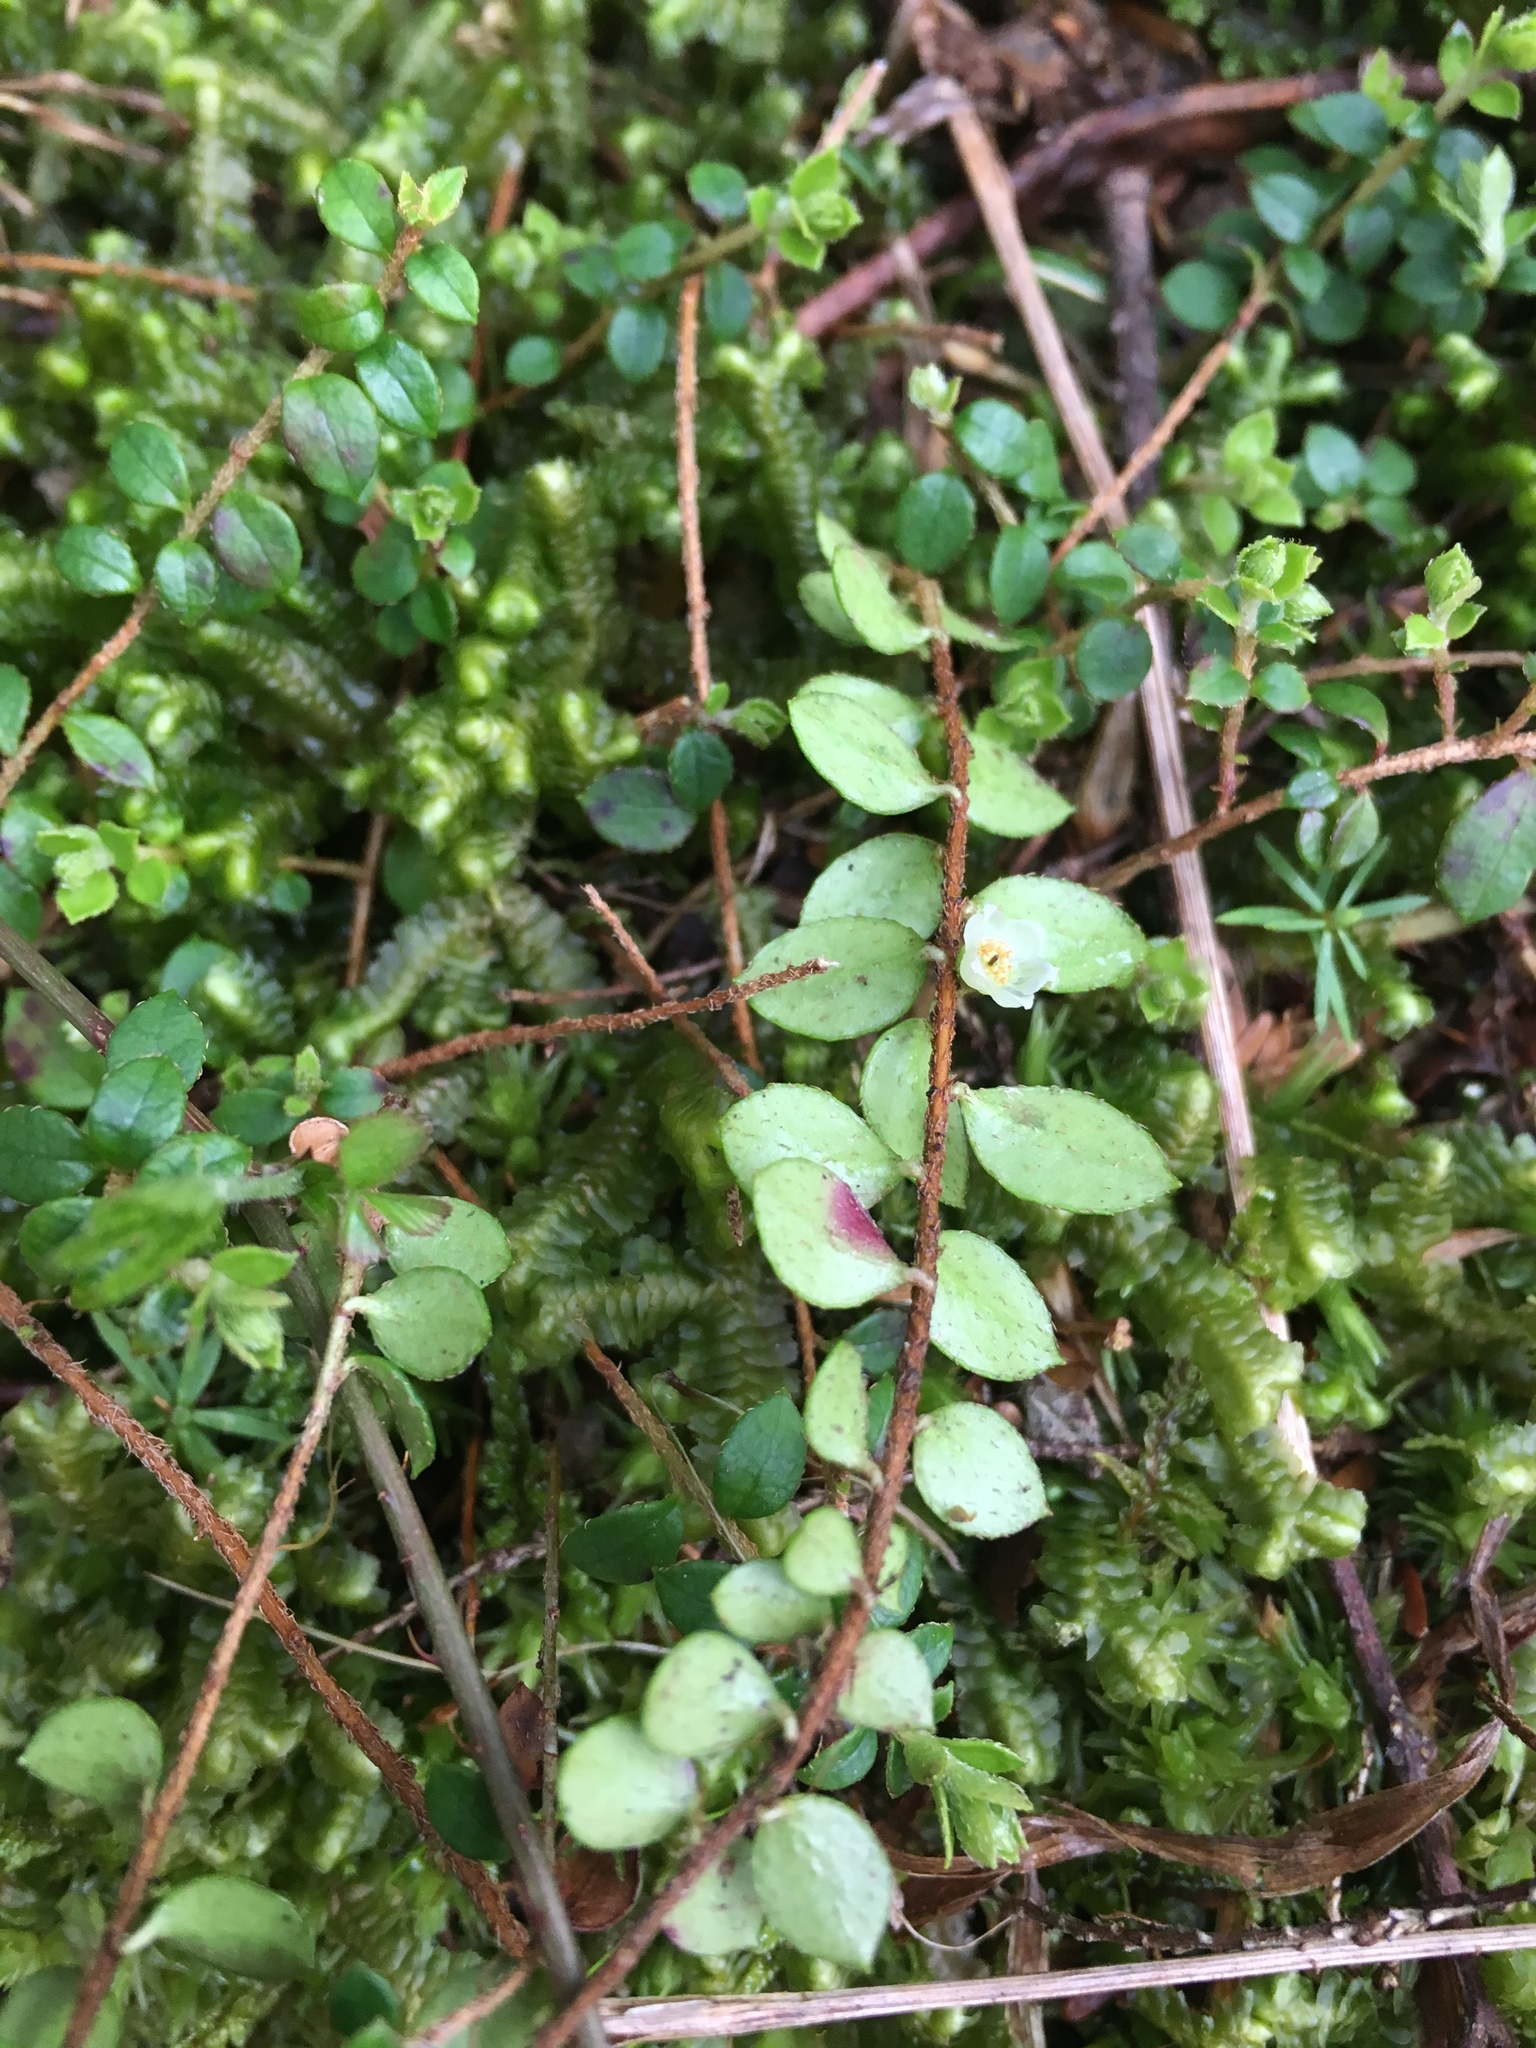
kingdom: Plantae
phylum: Tracheophyta
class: Magnoliopsida
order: Ericales
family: Ericaceae
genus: Gaultheria
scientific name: Gaultheria hispidula
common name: Cancer wintergreen
